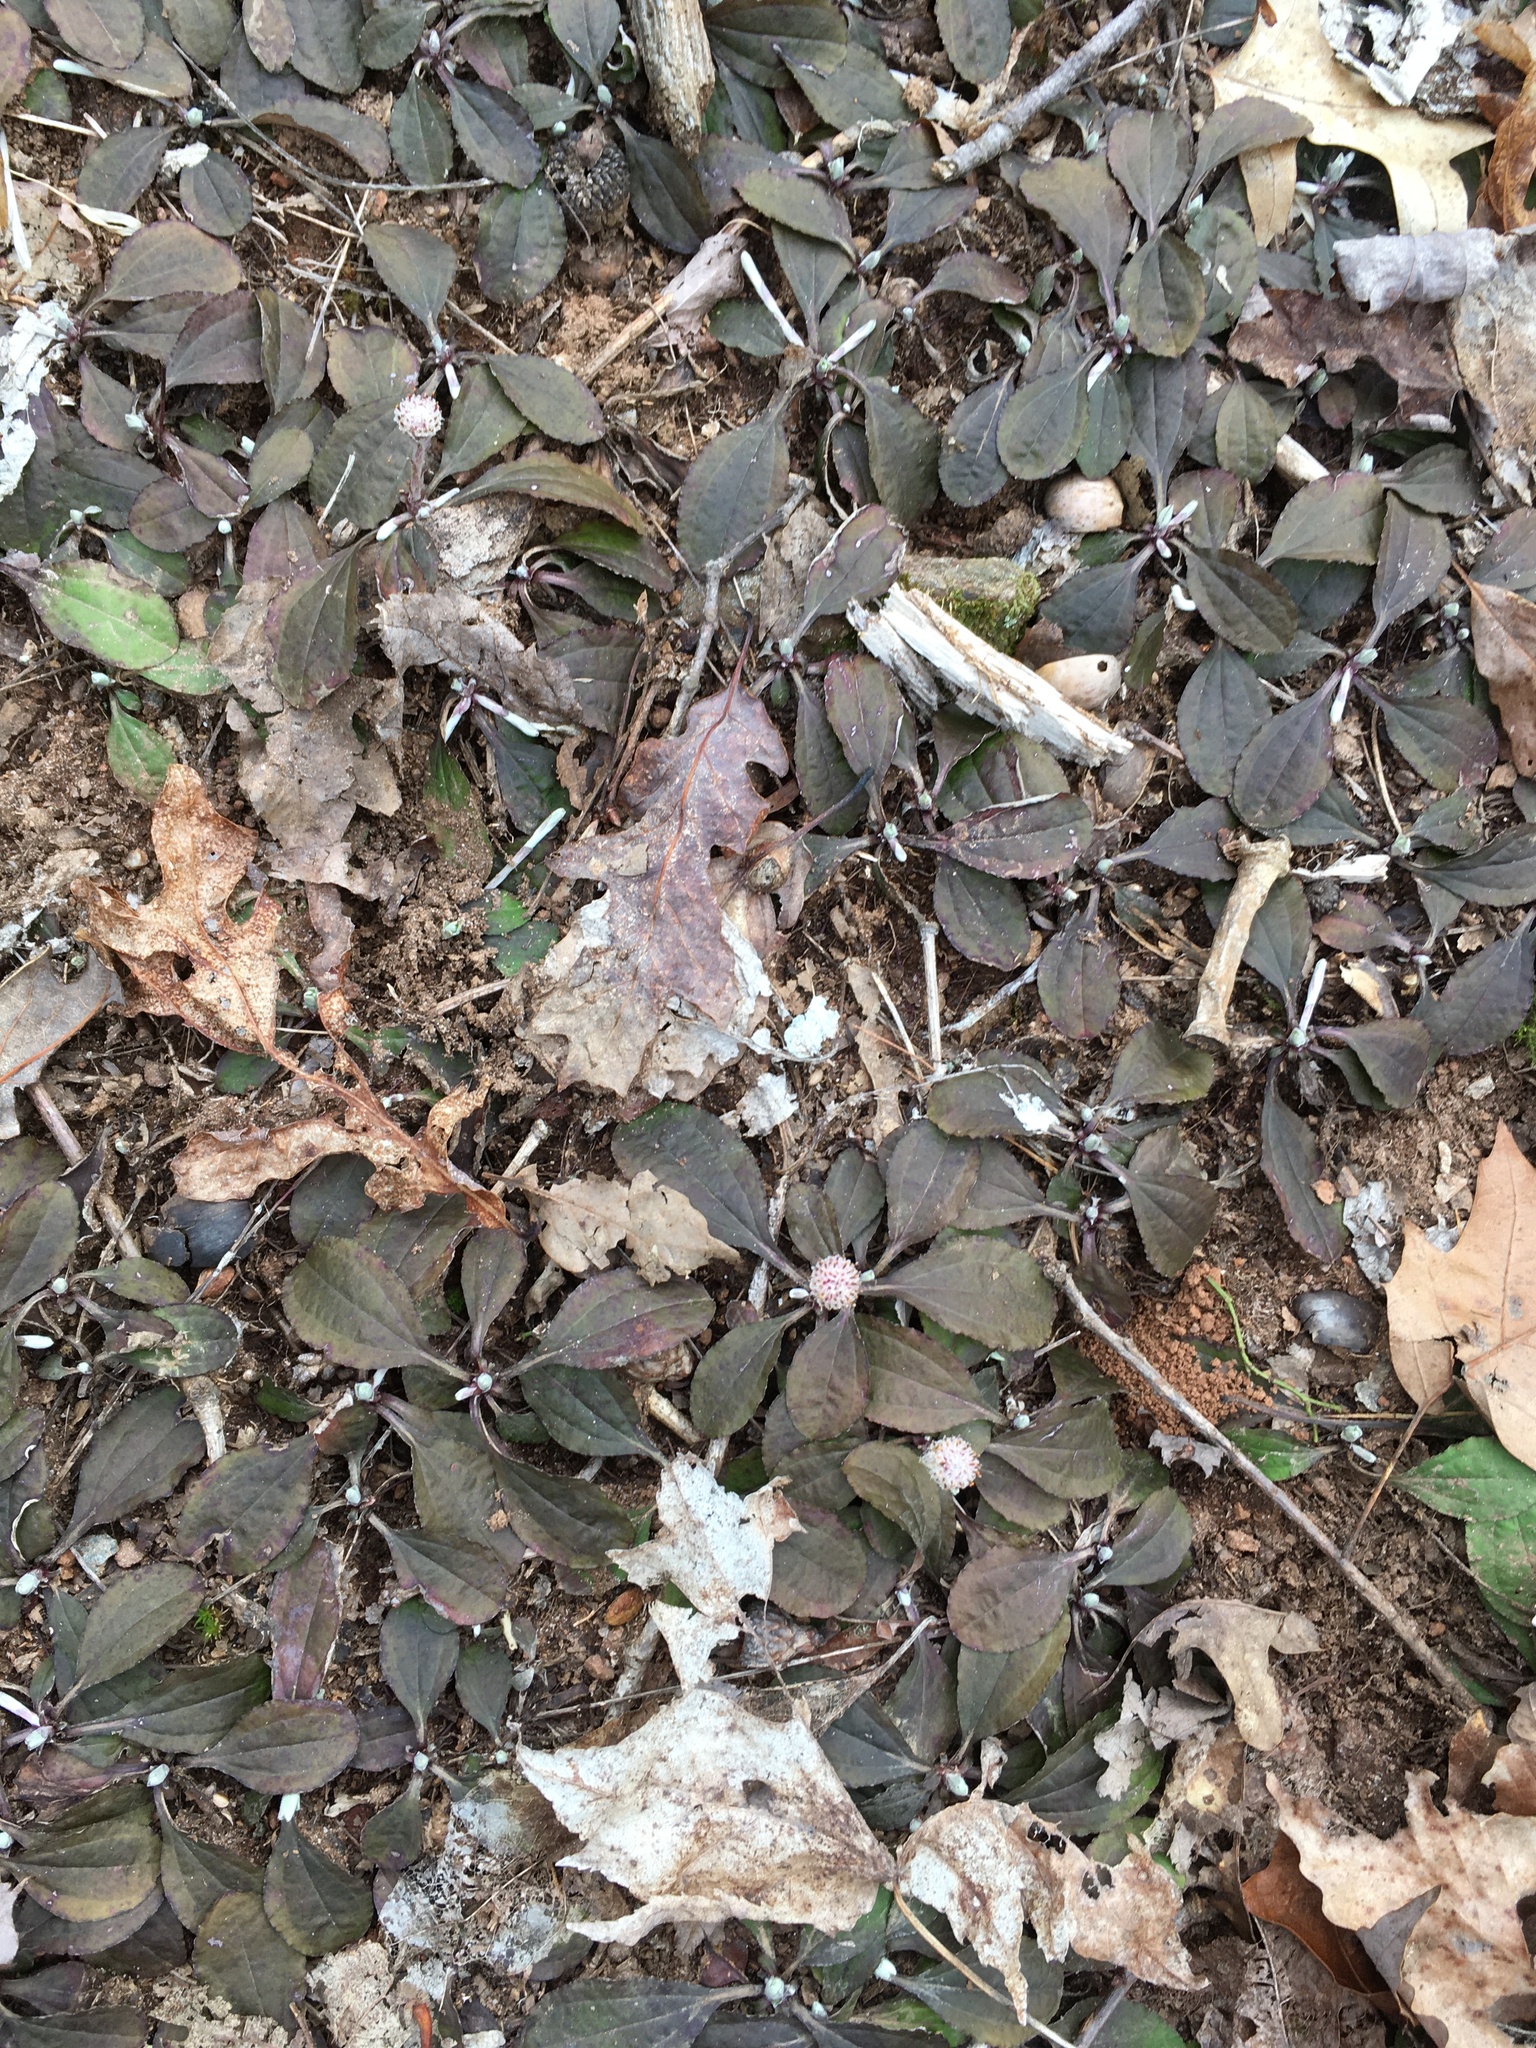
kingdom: Plantae
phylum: Tracheophyta
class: Magnoliopsida
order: Asterales
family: Asteraceae
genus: Antennaria
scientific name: Antennaria solitaria
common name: Single-head pussytoes
